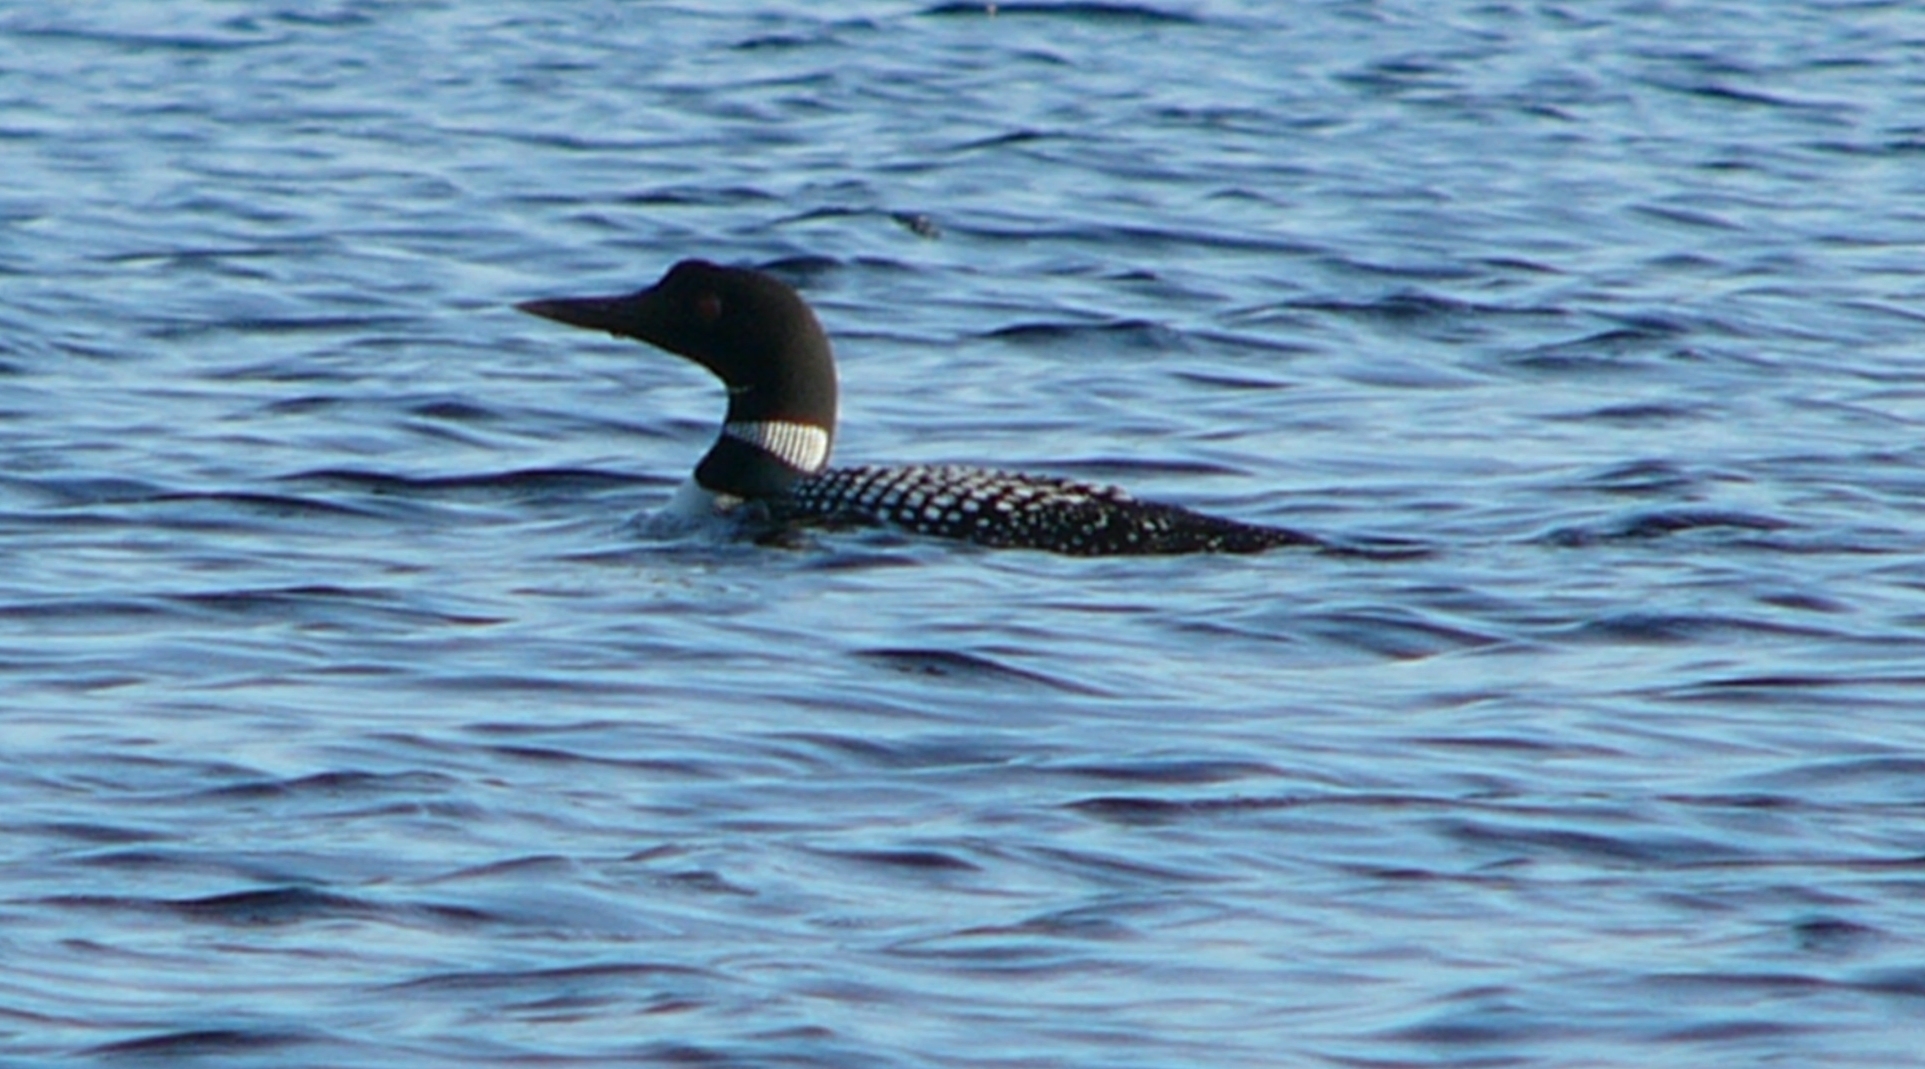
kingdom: Animalia
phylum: Chordata
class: Aves
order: Gaviiformes
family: Gaviidae
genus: Gavia
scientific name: Gavia immer
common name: Common loon
